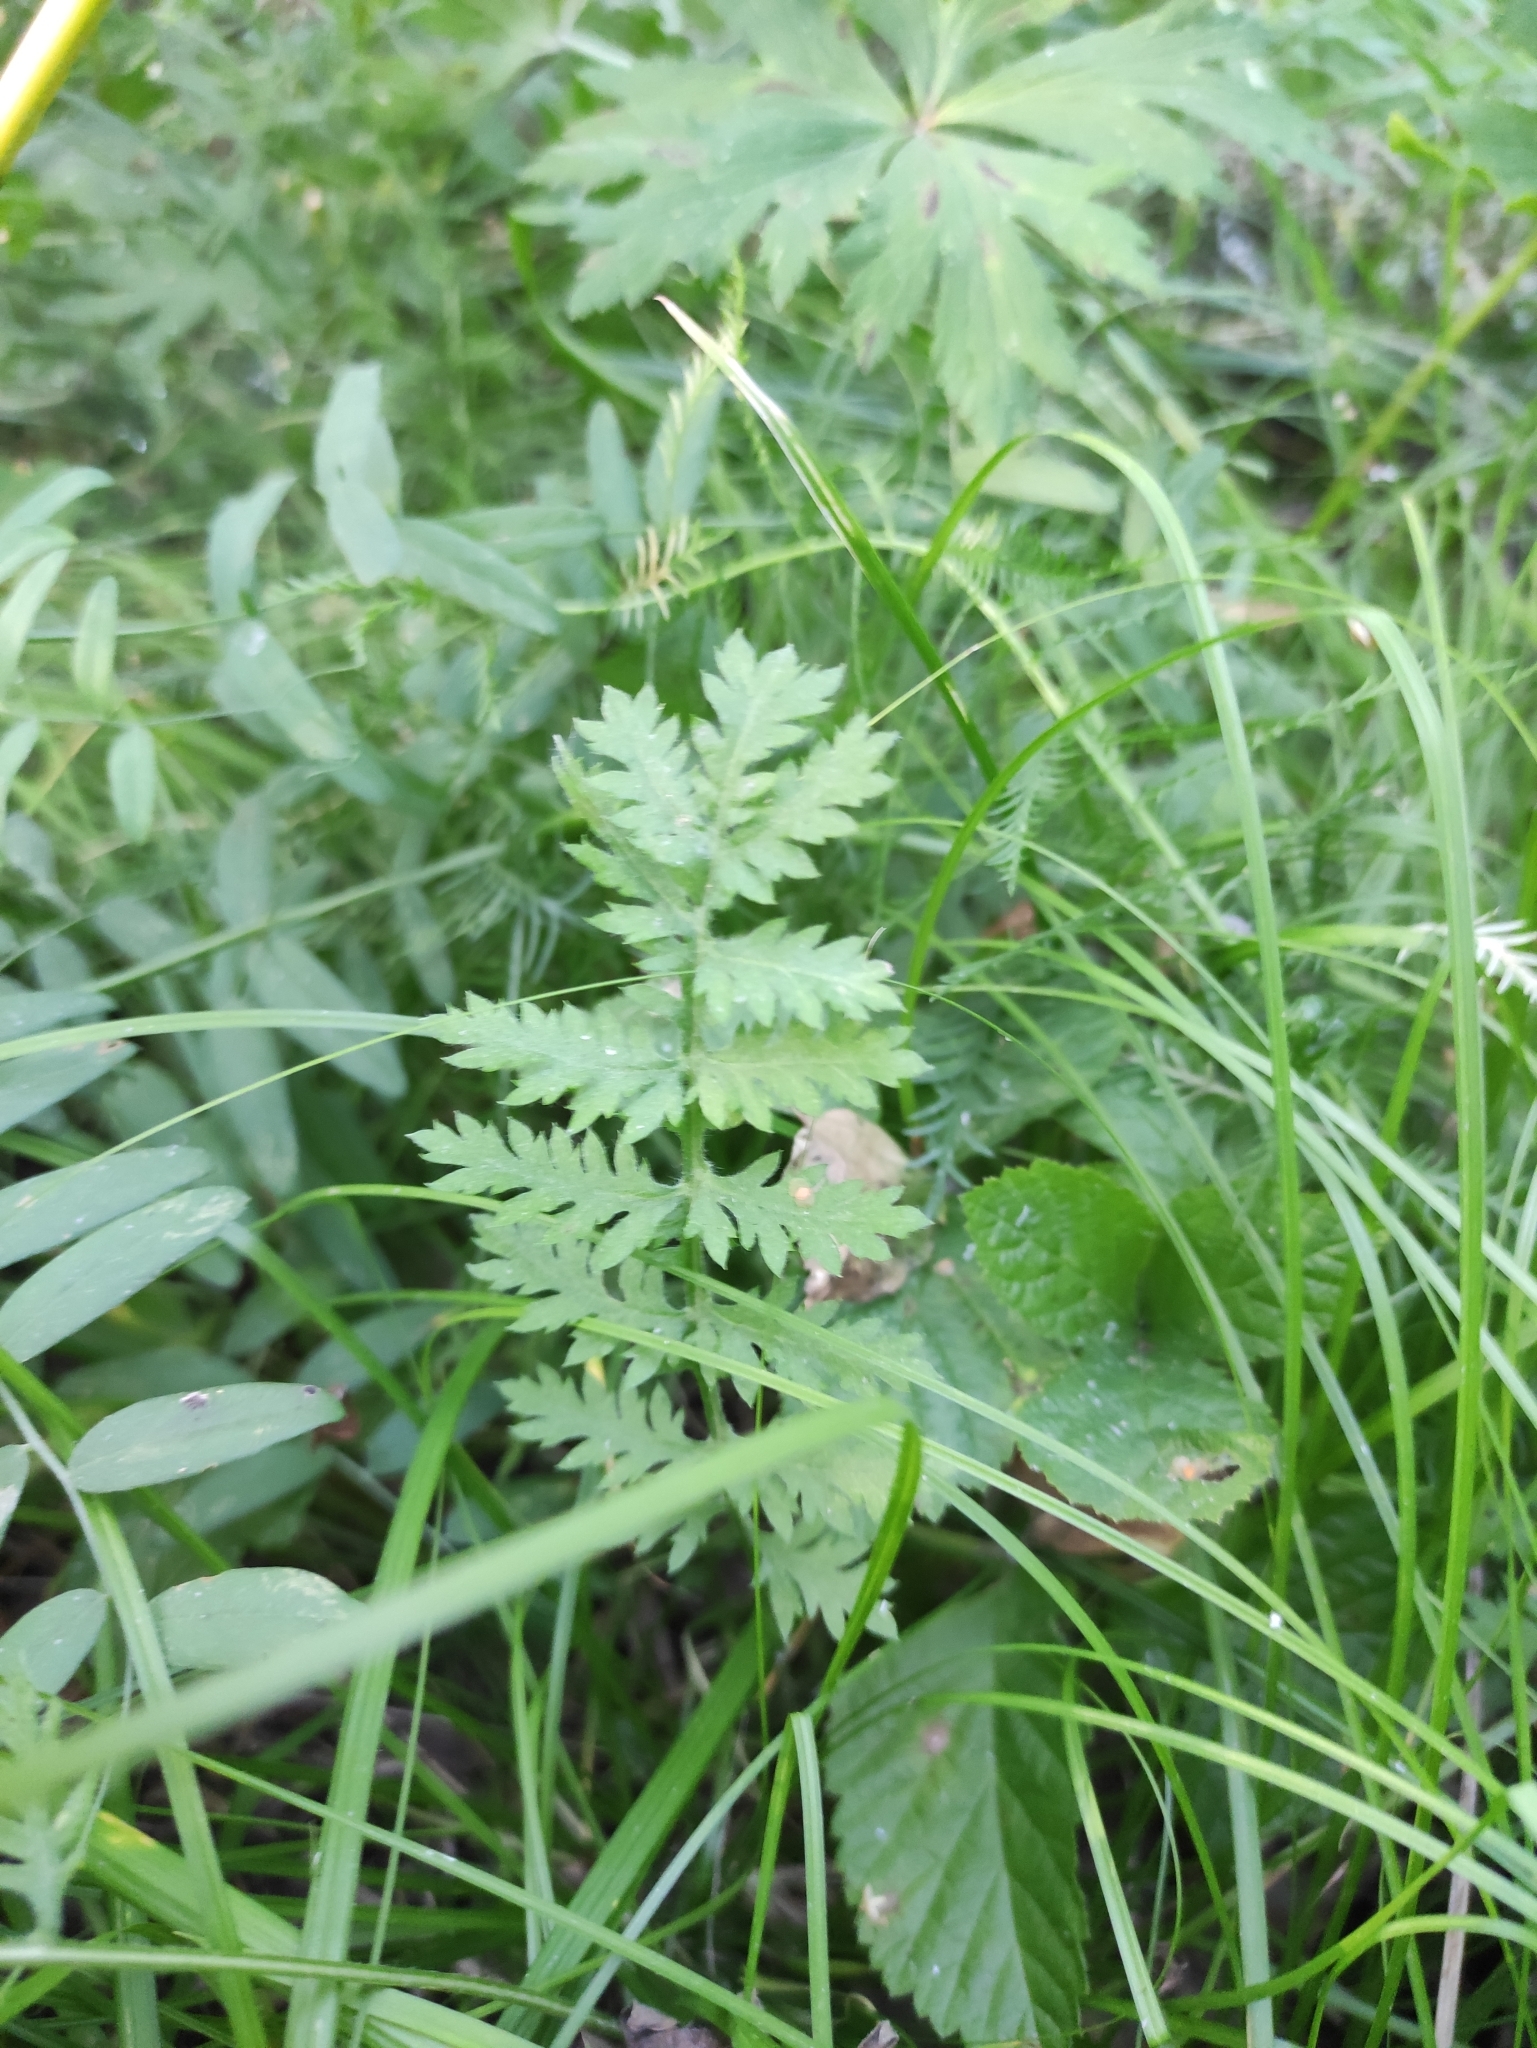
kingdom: Plantae
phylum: Tracheophyta
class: Magnoliopsida
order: Asterales
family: Asteraceae
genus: Artemisia
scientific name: Artemisia tanacetifolia
